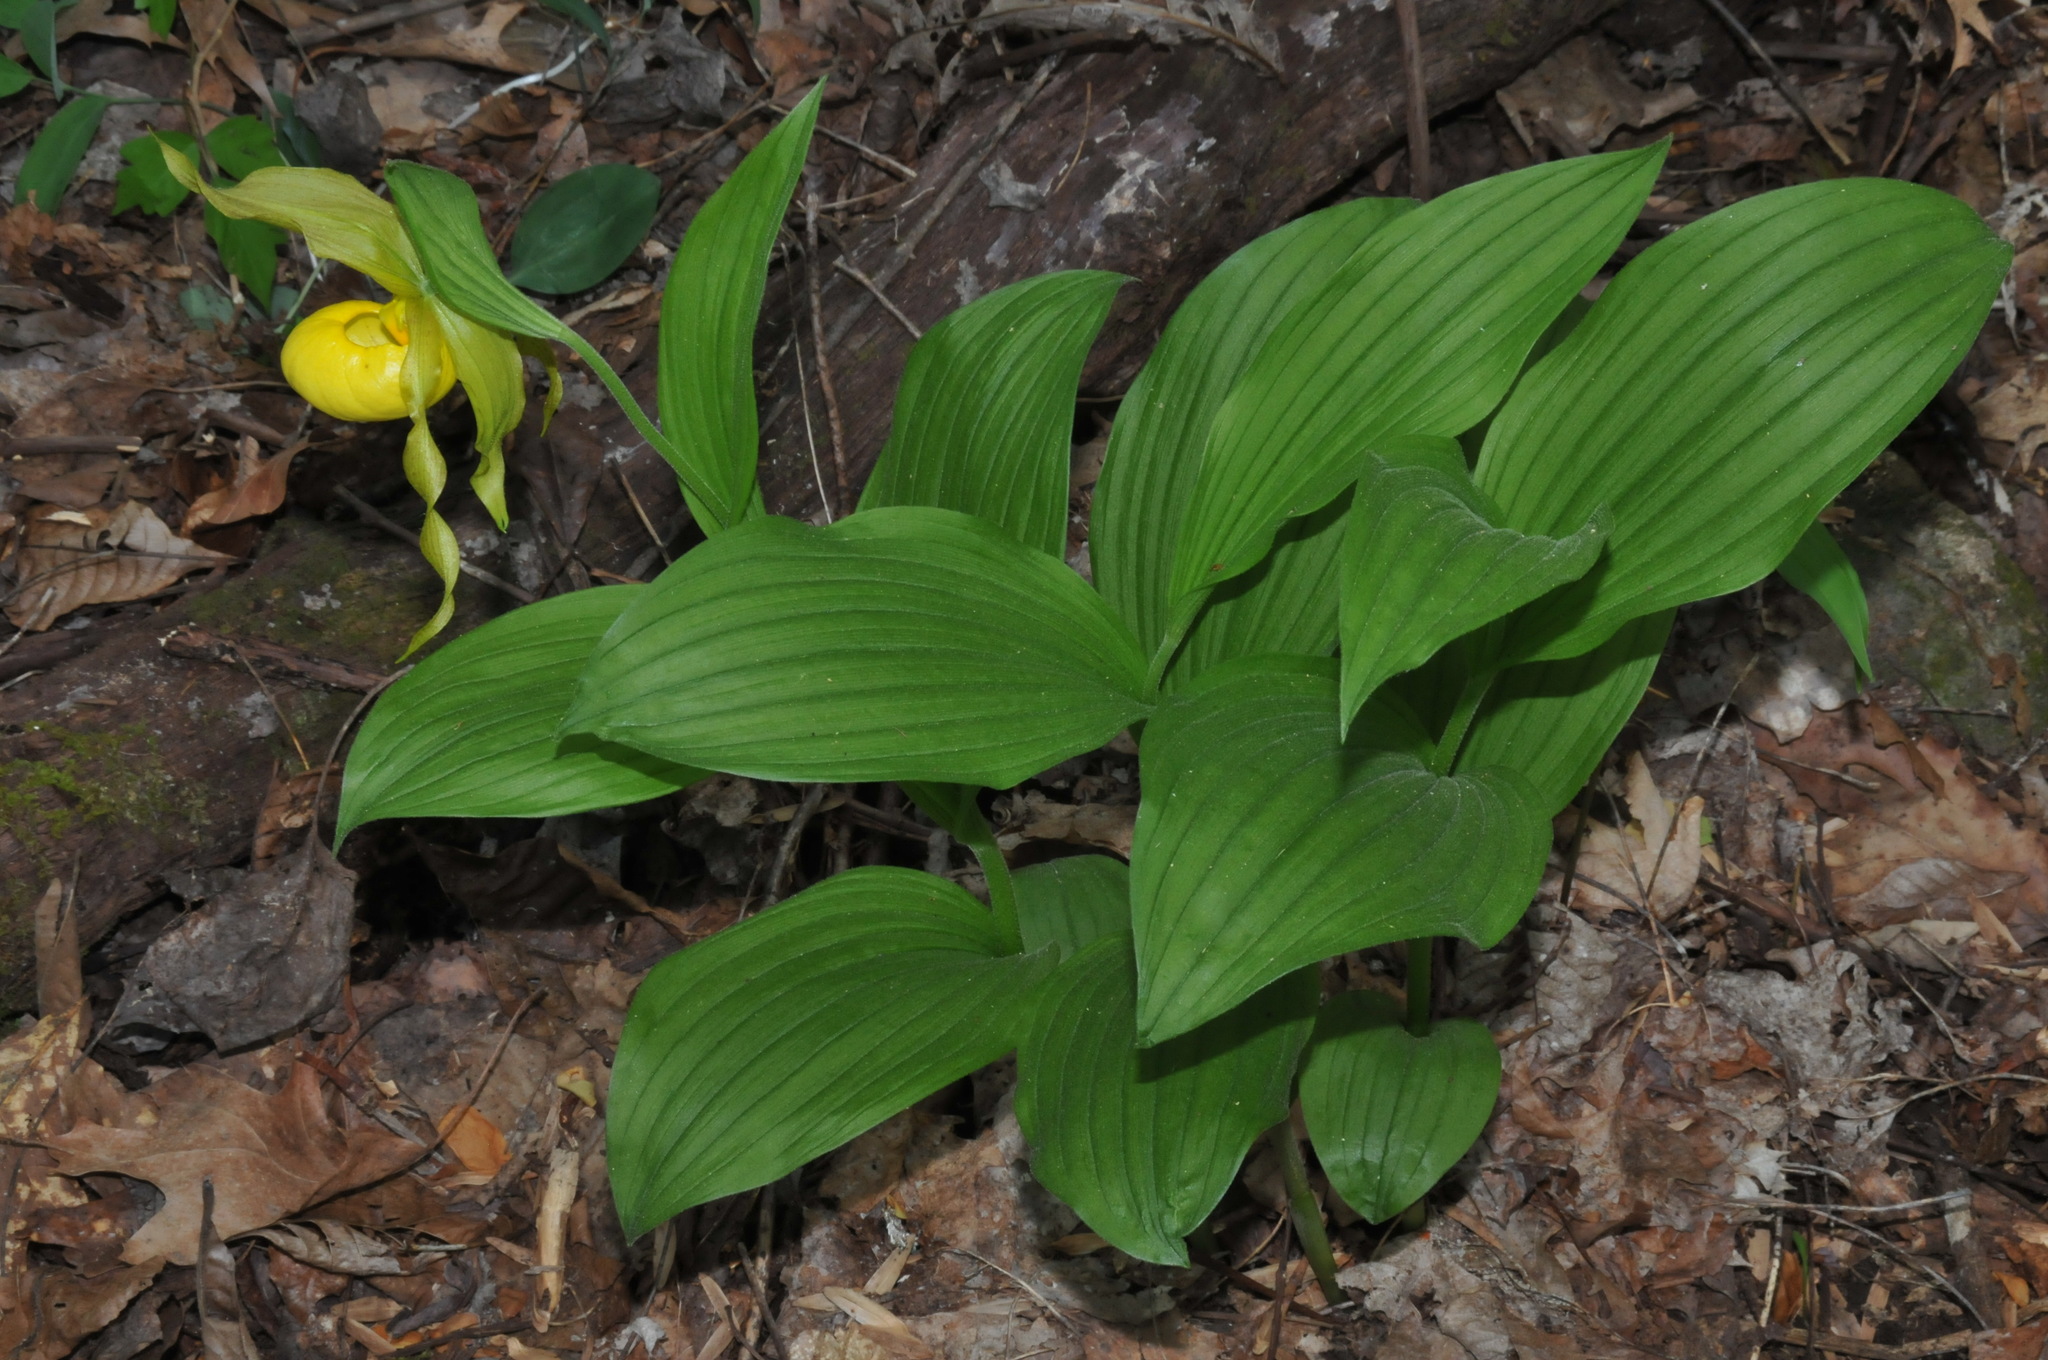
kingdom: Plantae
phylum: Tracheophyta
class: Liliopsida
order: Asparagales
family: Orchidaceae
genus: Cypripedium
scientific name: Cypripedium parviflorum
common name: American yellow lady's-slipper
